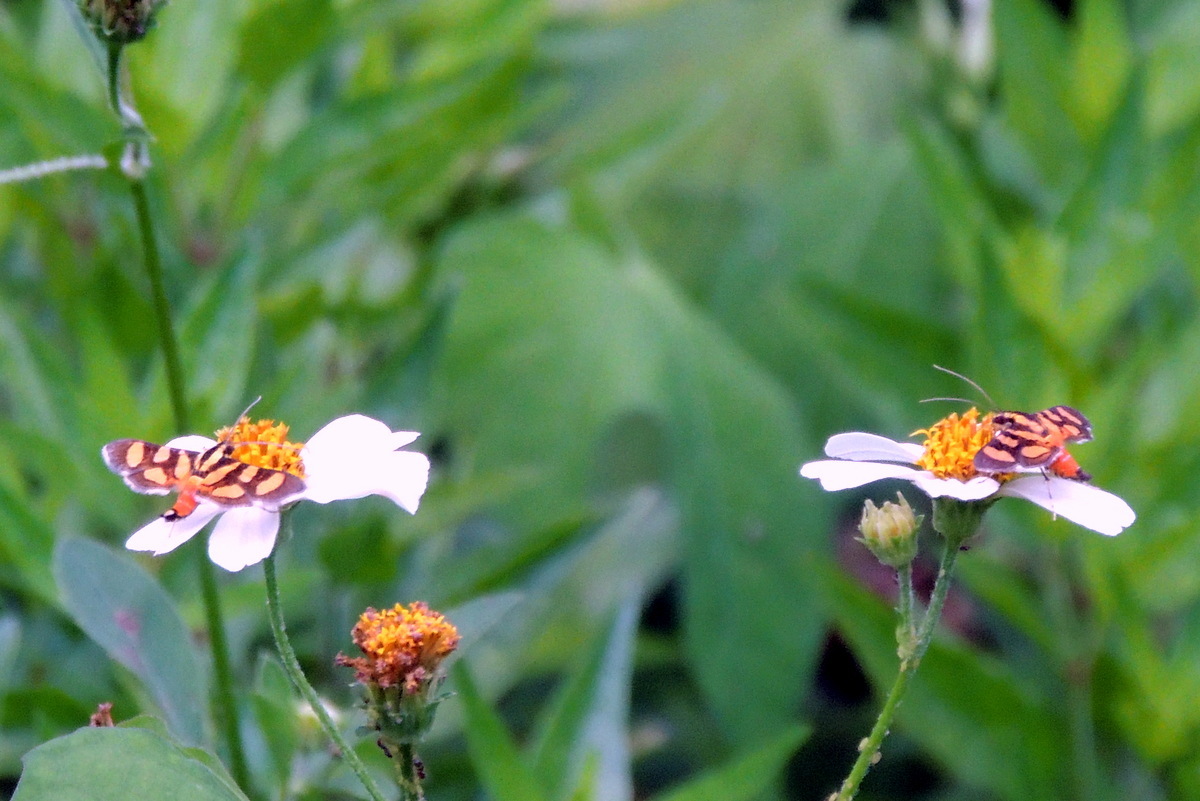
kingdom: Animalia
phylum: Arthropoda
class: Insecta
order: Lepidoptera
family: Crambidae
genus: Syngamia
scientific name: Syngamia florella
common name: Orange-spotted flower moth
